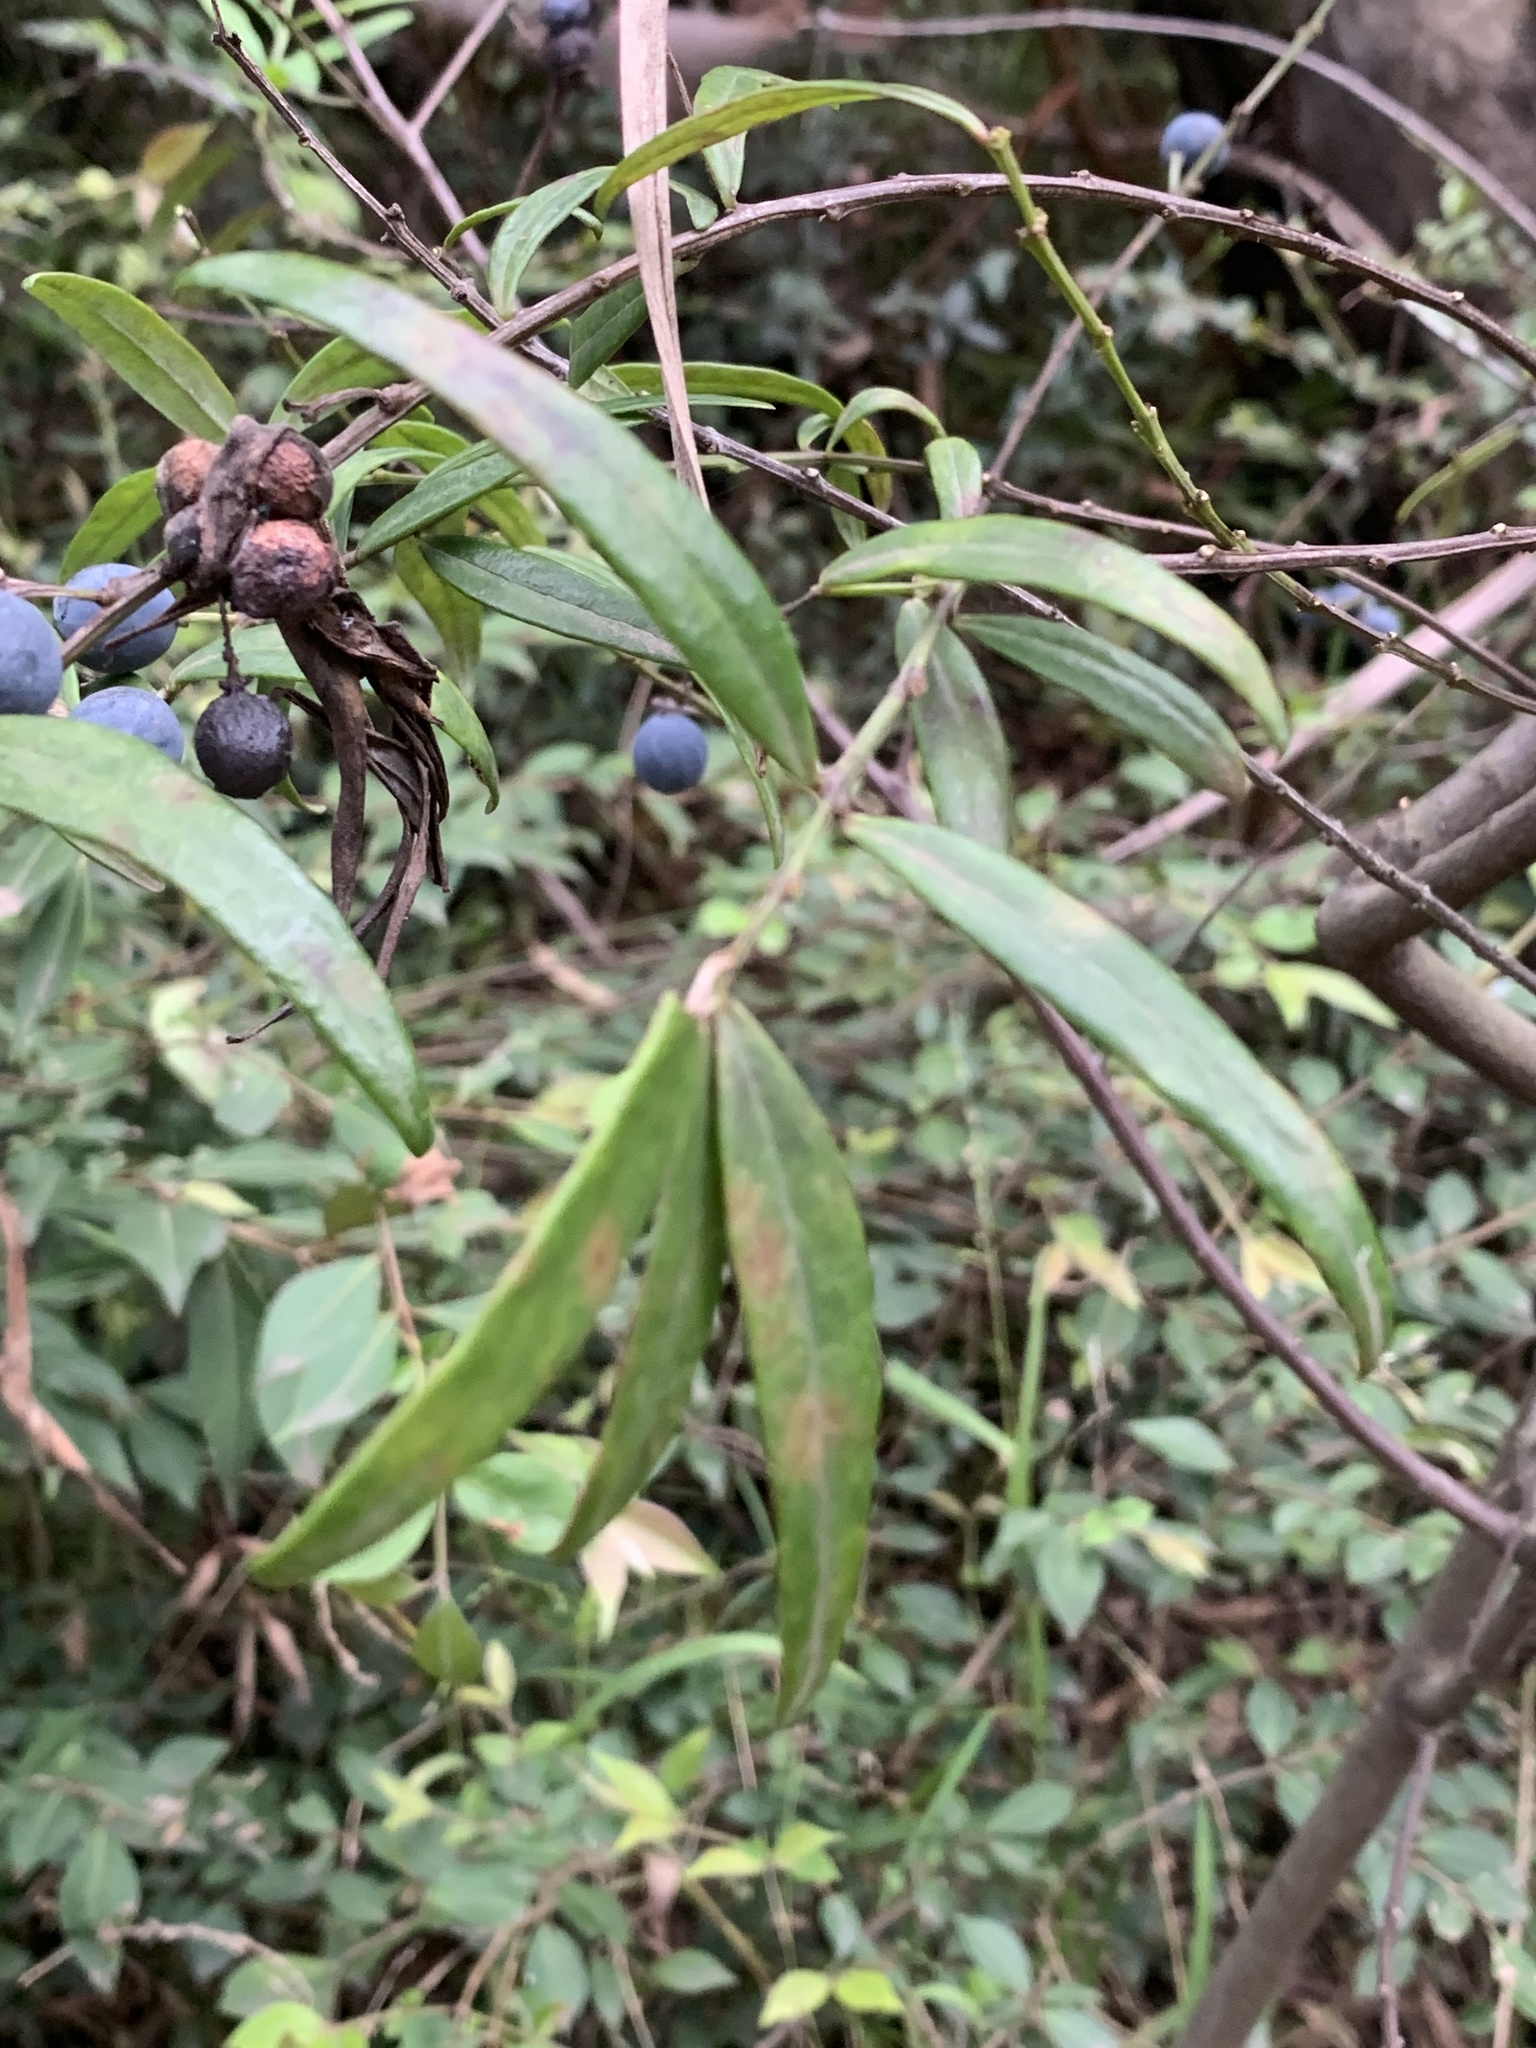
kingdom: Plantae
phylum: Tracheophyta
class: Magnoliopsida
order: Santalales
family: Santalaceae
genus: Santalum
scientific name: Santalum obtusifolium
